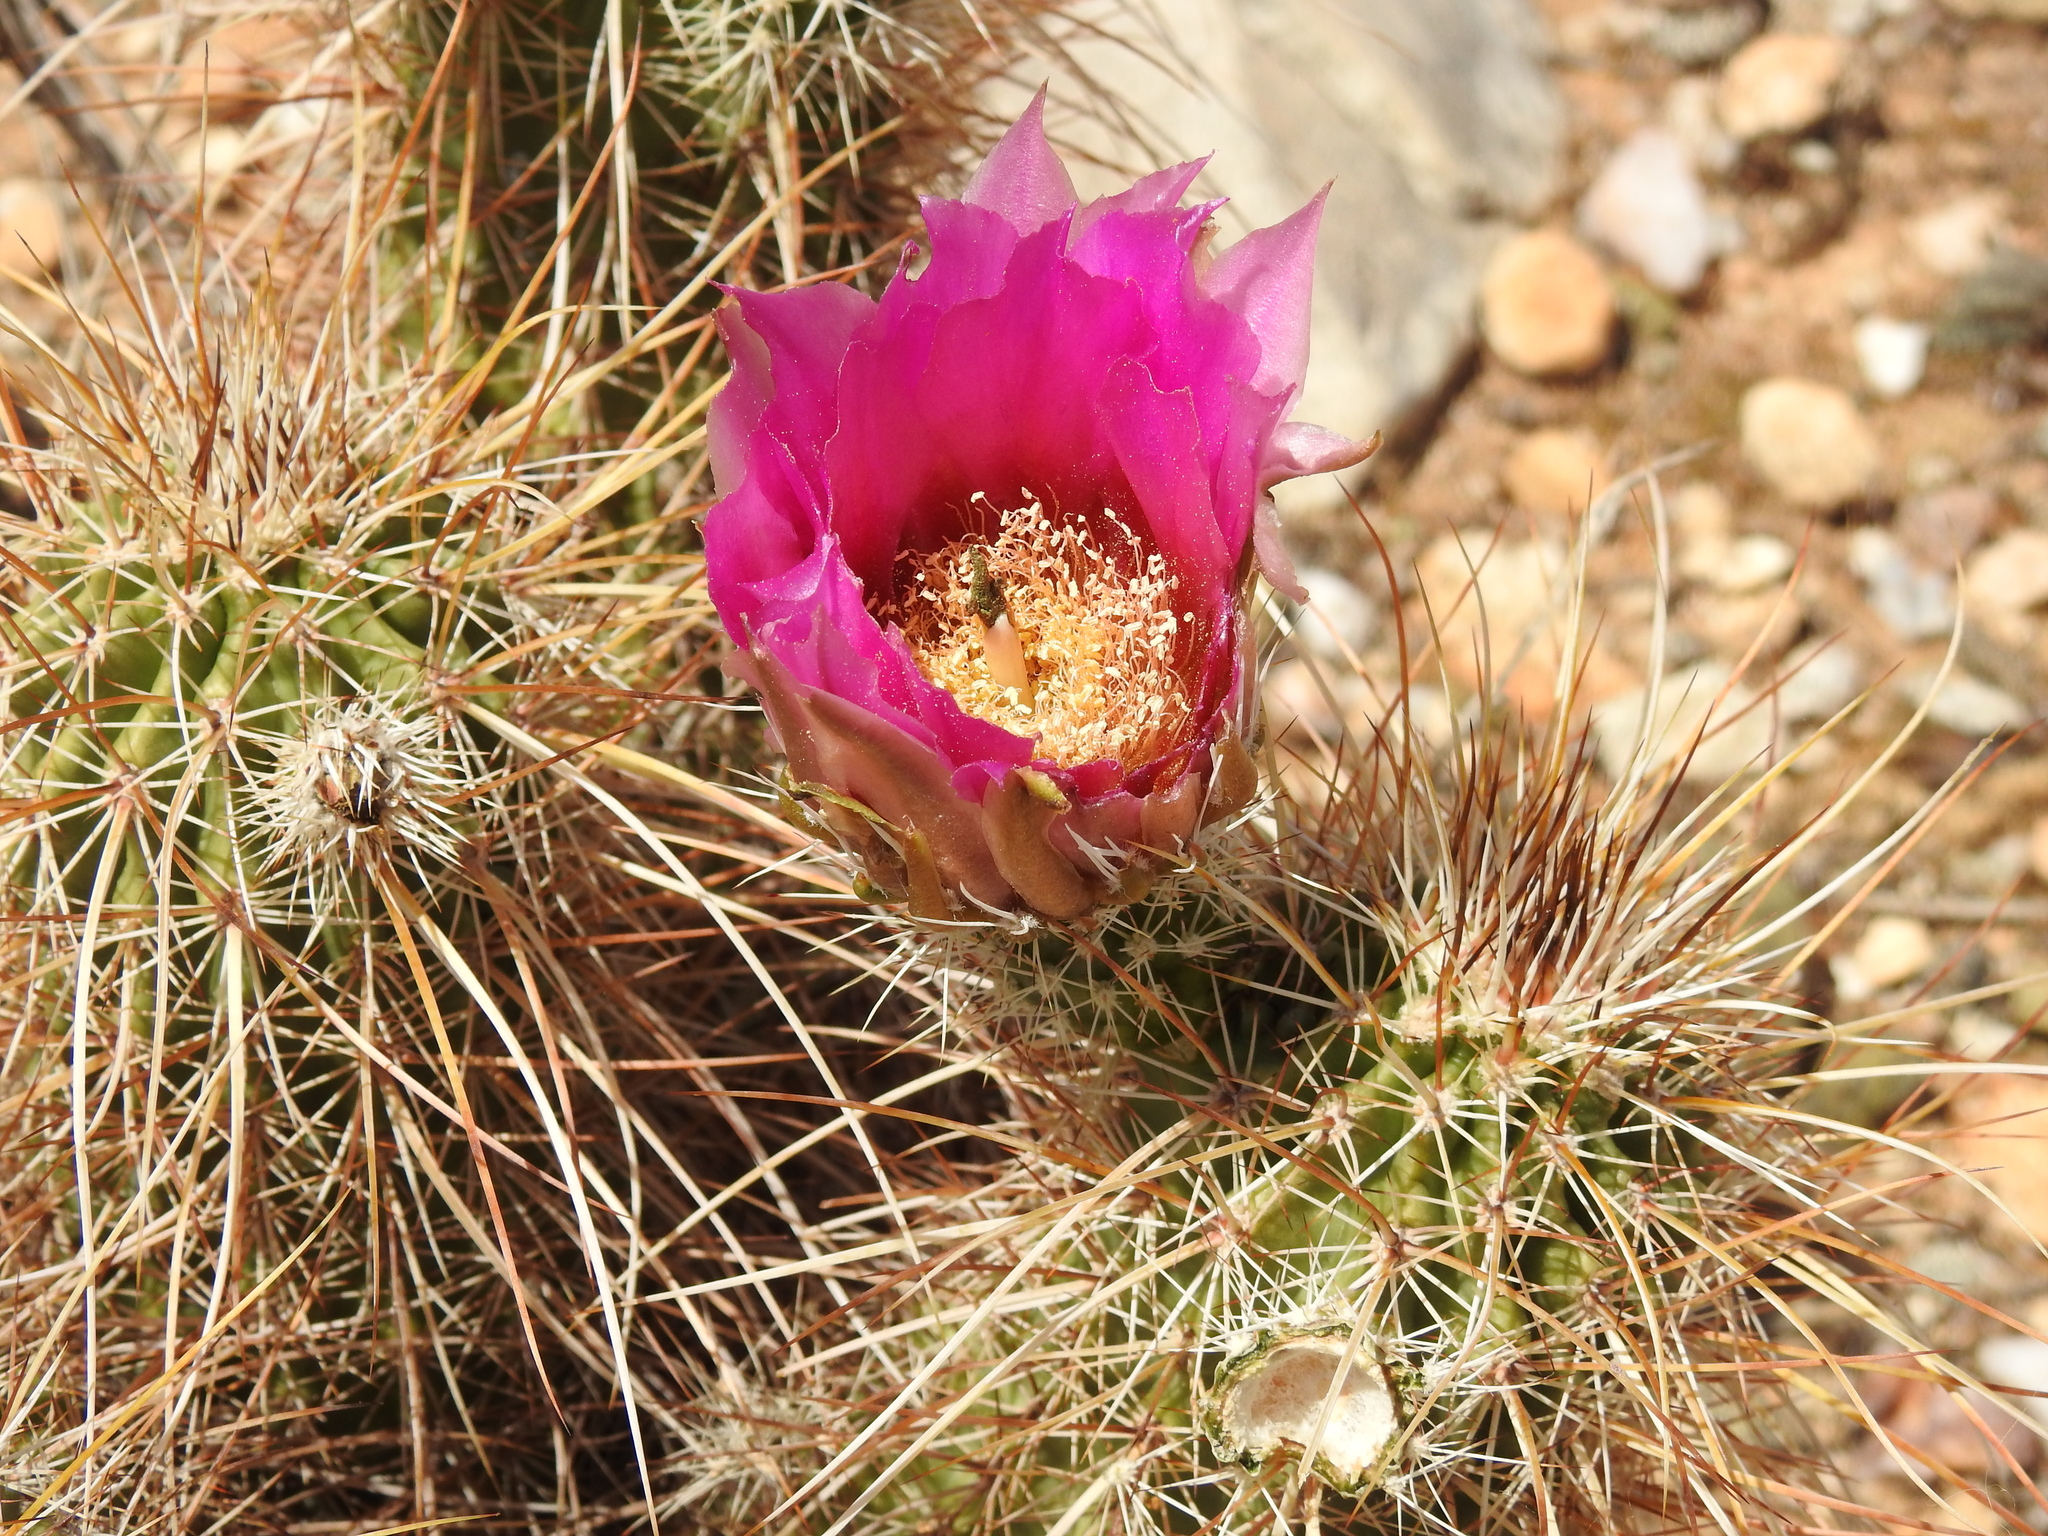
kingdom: Plantae
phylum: Tracheophyta
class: Magnoliopsida
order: Caryophyllales
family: Cactaceae
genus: Echinocereus
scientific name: Echinocereus engelmannii
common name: Engelmann's hedgehog cactus
